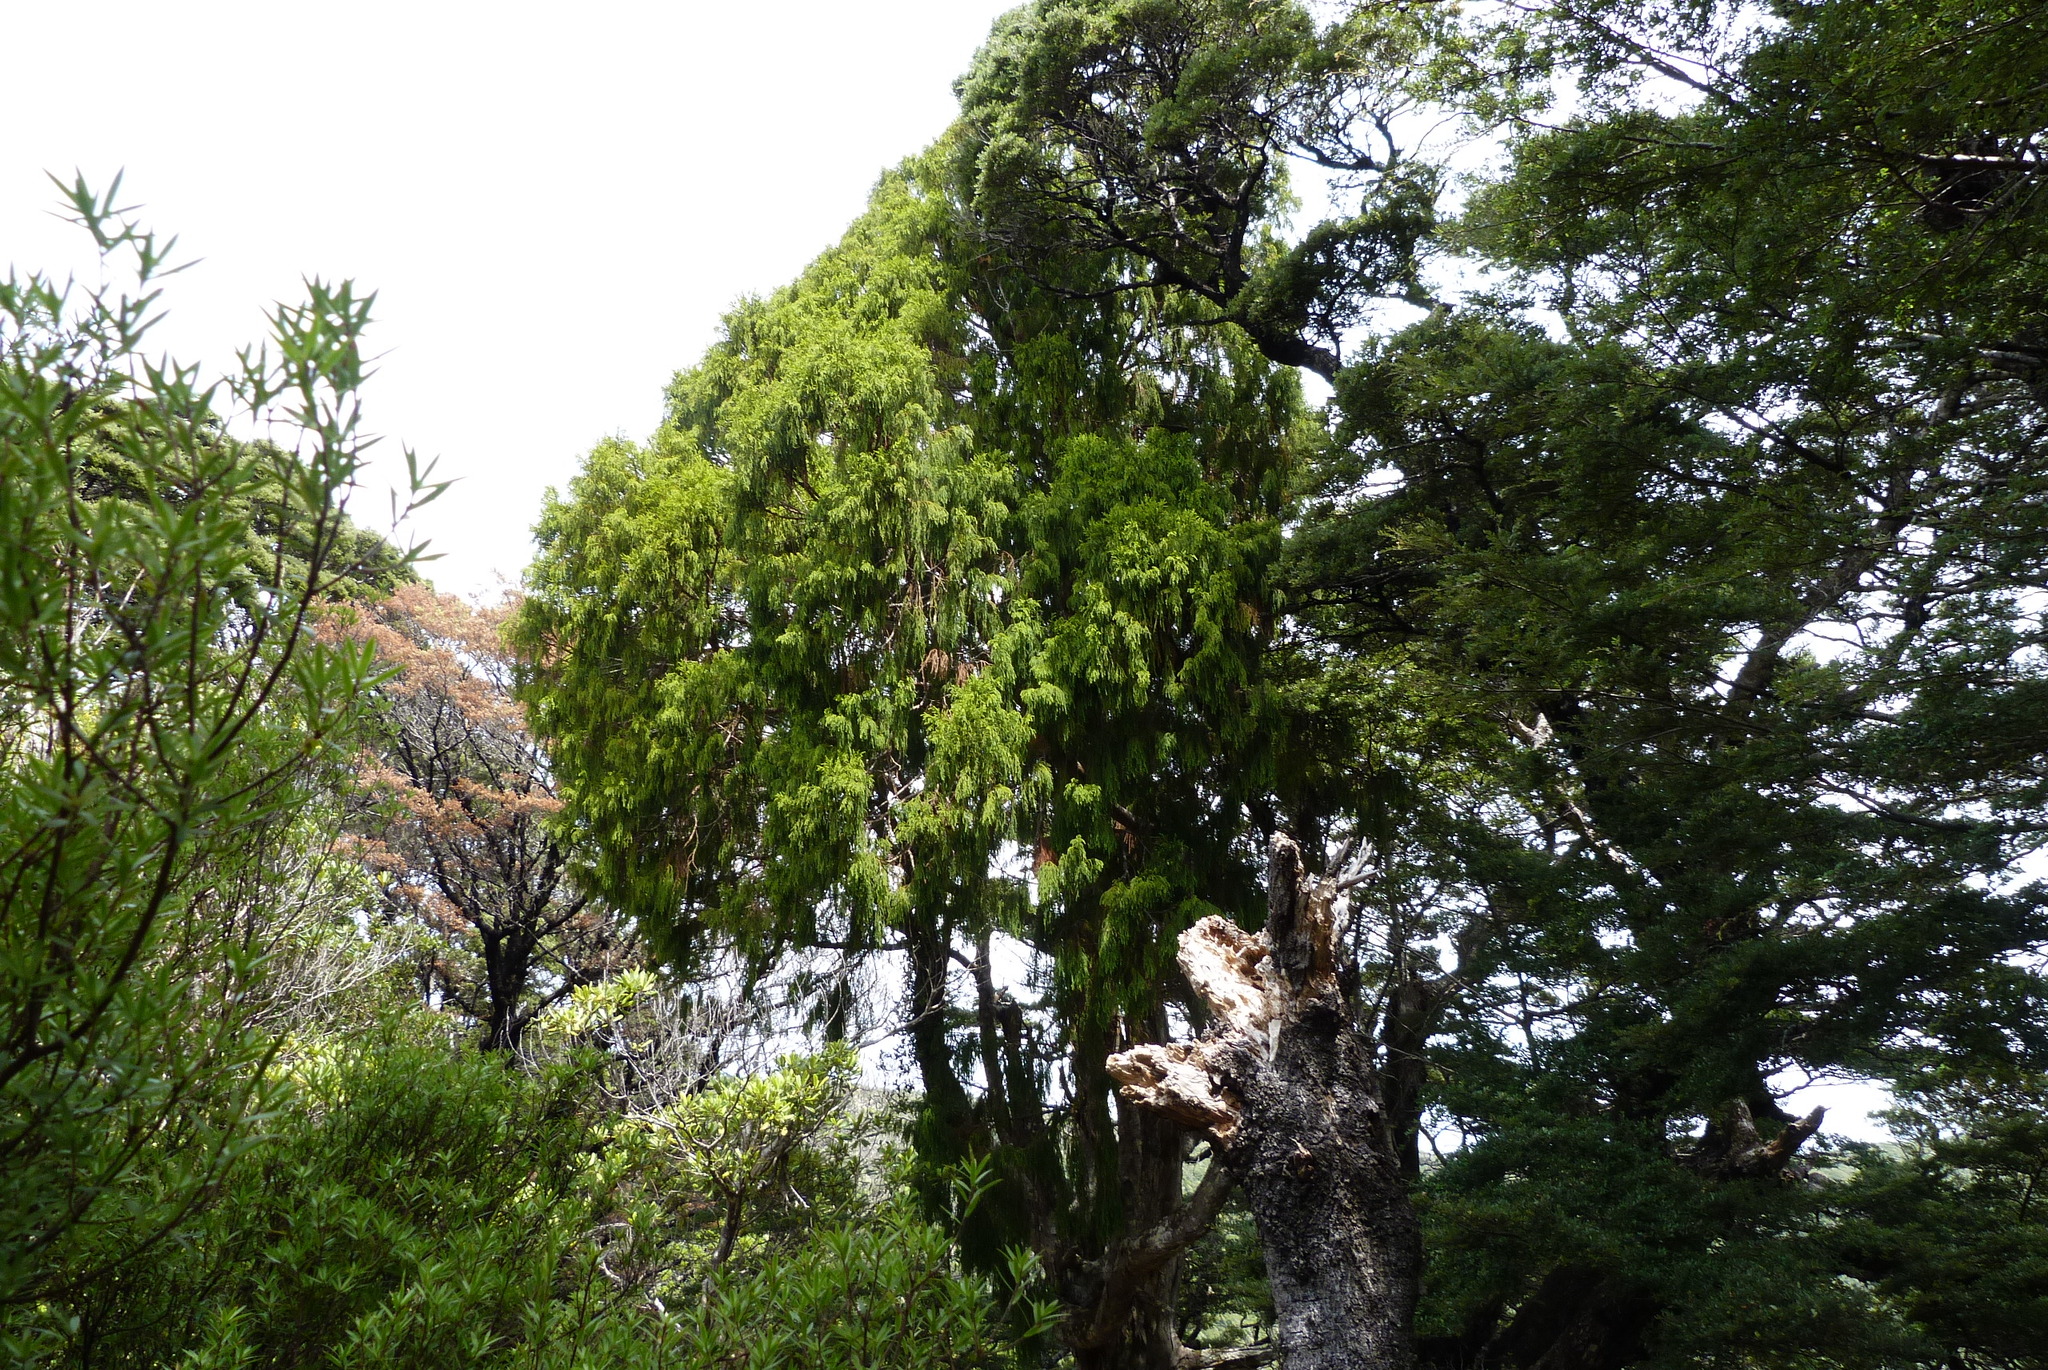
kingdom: Plantae
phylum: Tracheophyta
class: Pinopsida
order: Pinales
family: Podocarpaceae
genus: Dacrydium
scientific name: Dacrydium cupressinum
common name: Red pine
